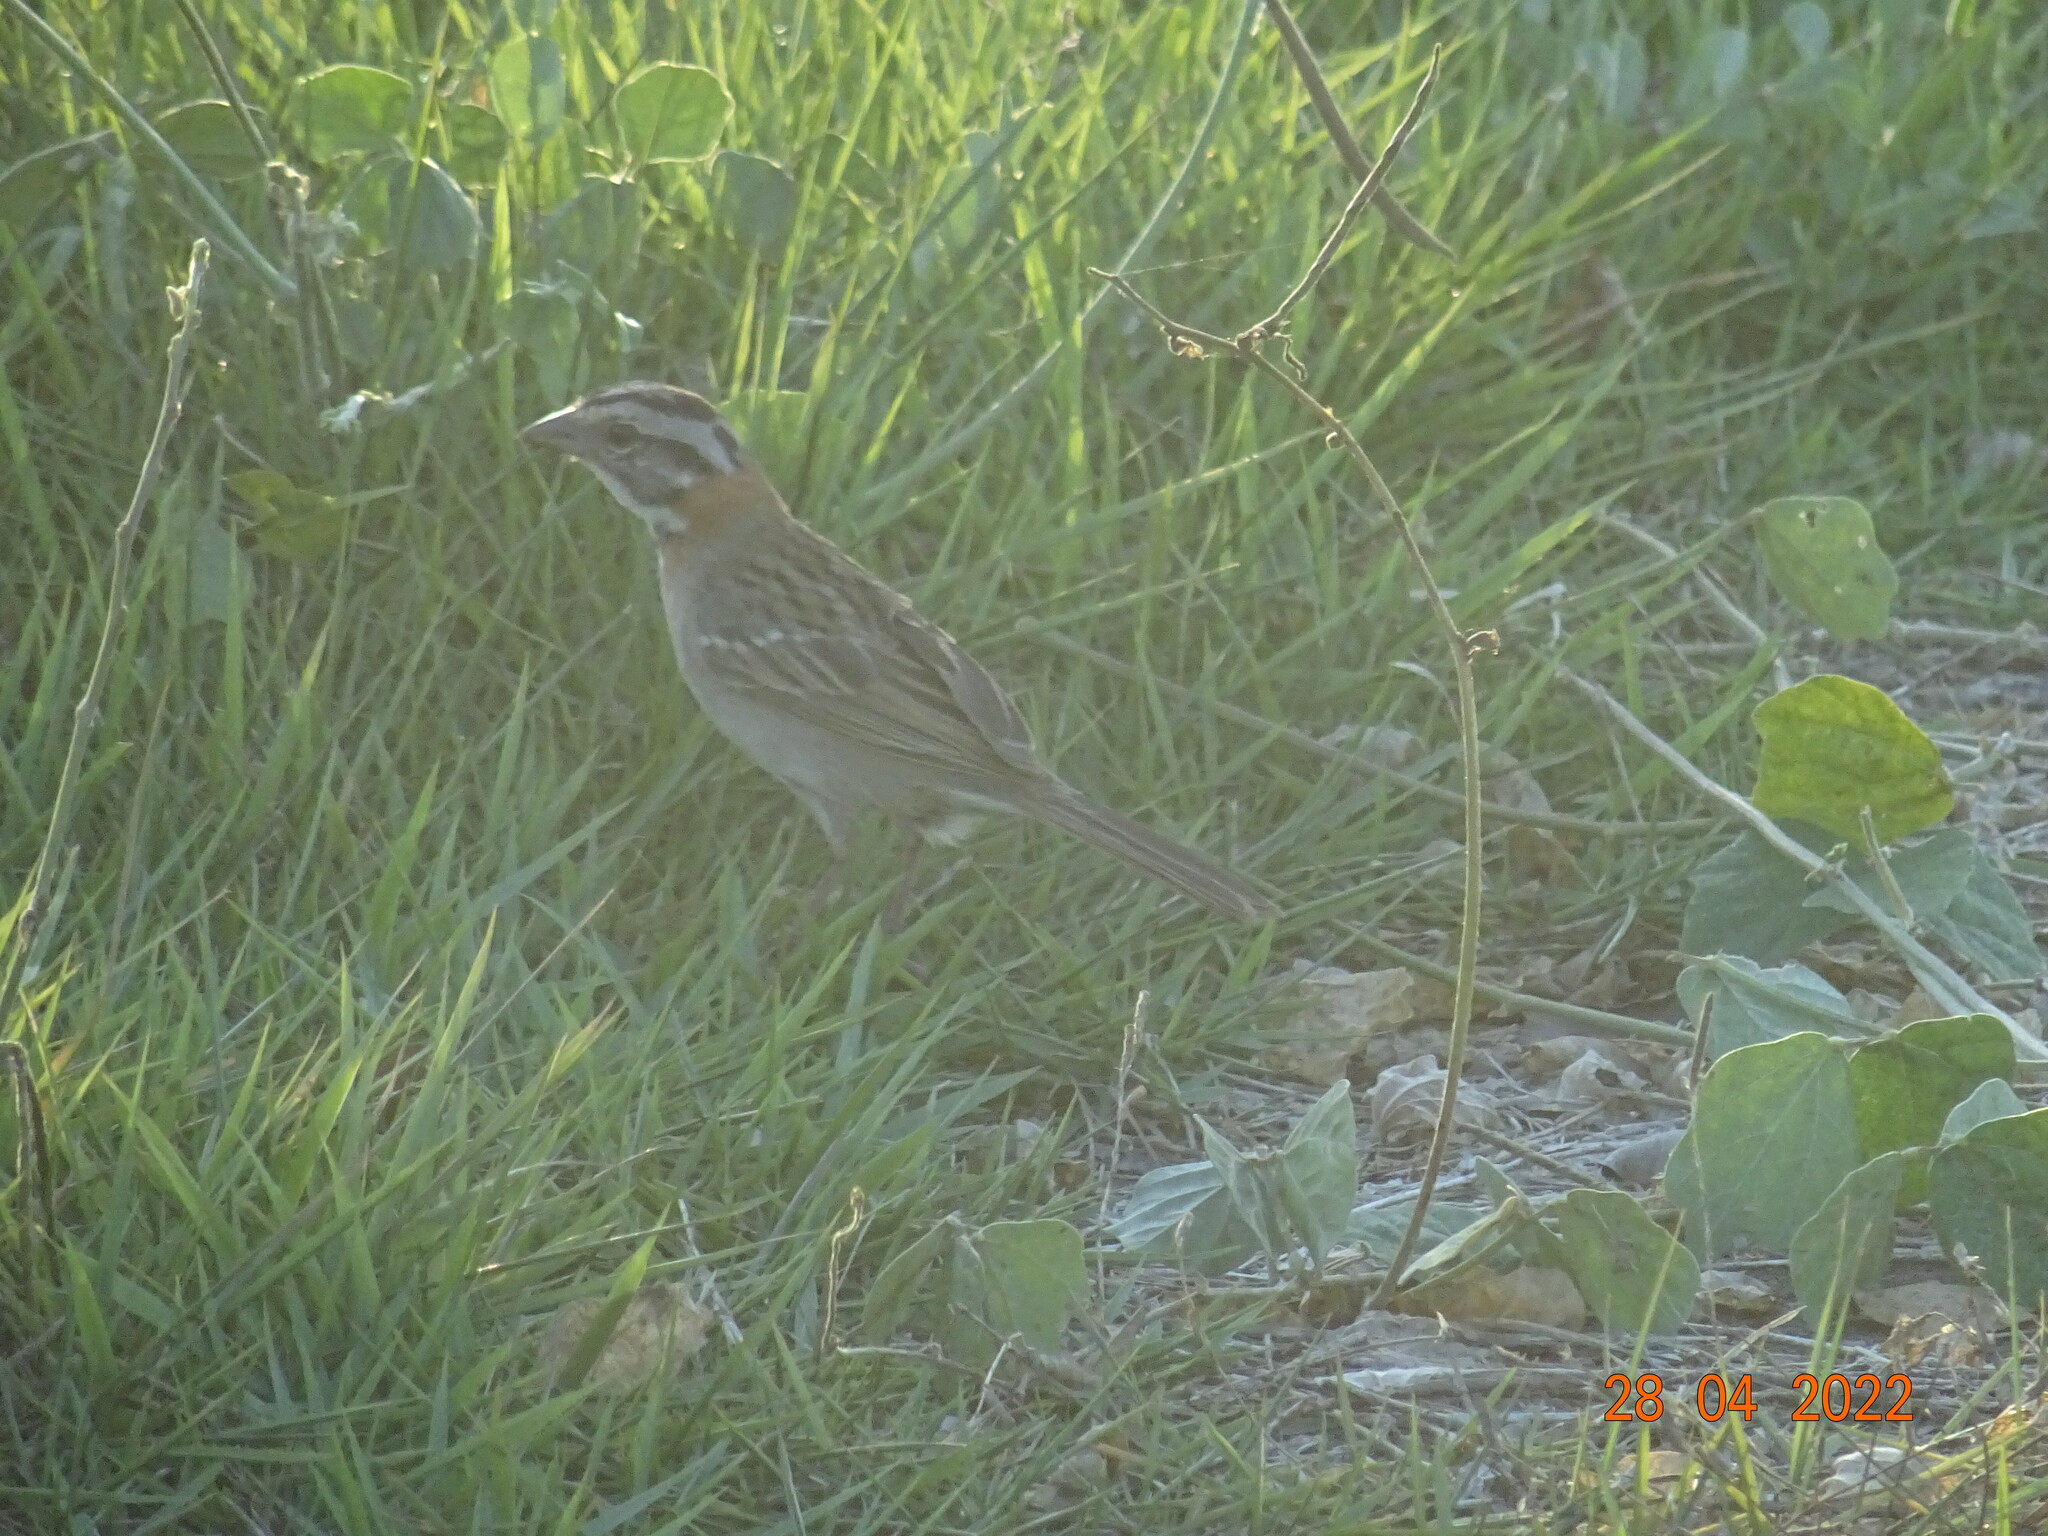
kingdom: Animalia
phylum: Chordata
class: Aves
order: Passeriformes
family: Passerellidae
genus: Zonotrichia
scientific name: Zonotrichia capensis
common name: Rufous-collared sparrow
